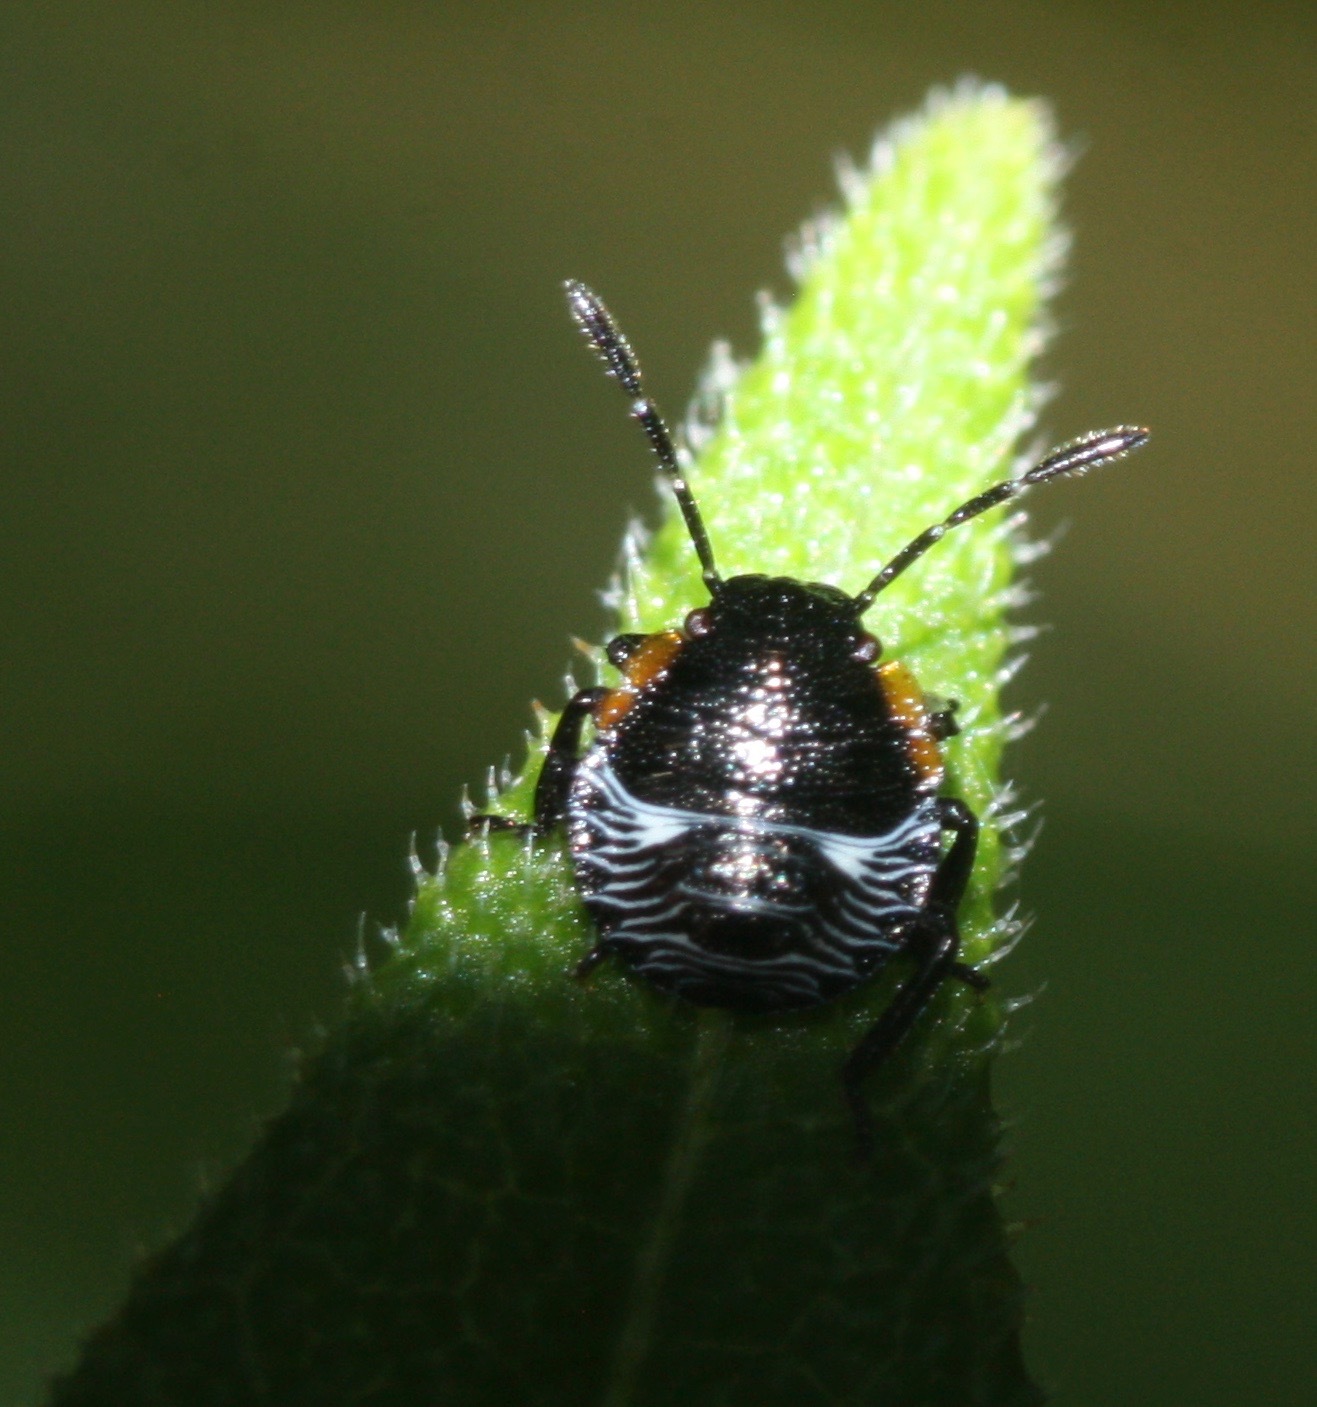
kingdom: Animalia
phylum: Arthropoda
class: Insecta
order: Hemiptera
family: Pentatomidae
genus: Chinavia
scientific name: Chinavia hilaris
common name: Green stink bug
